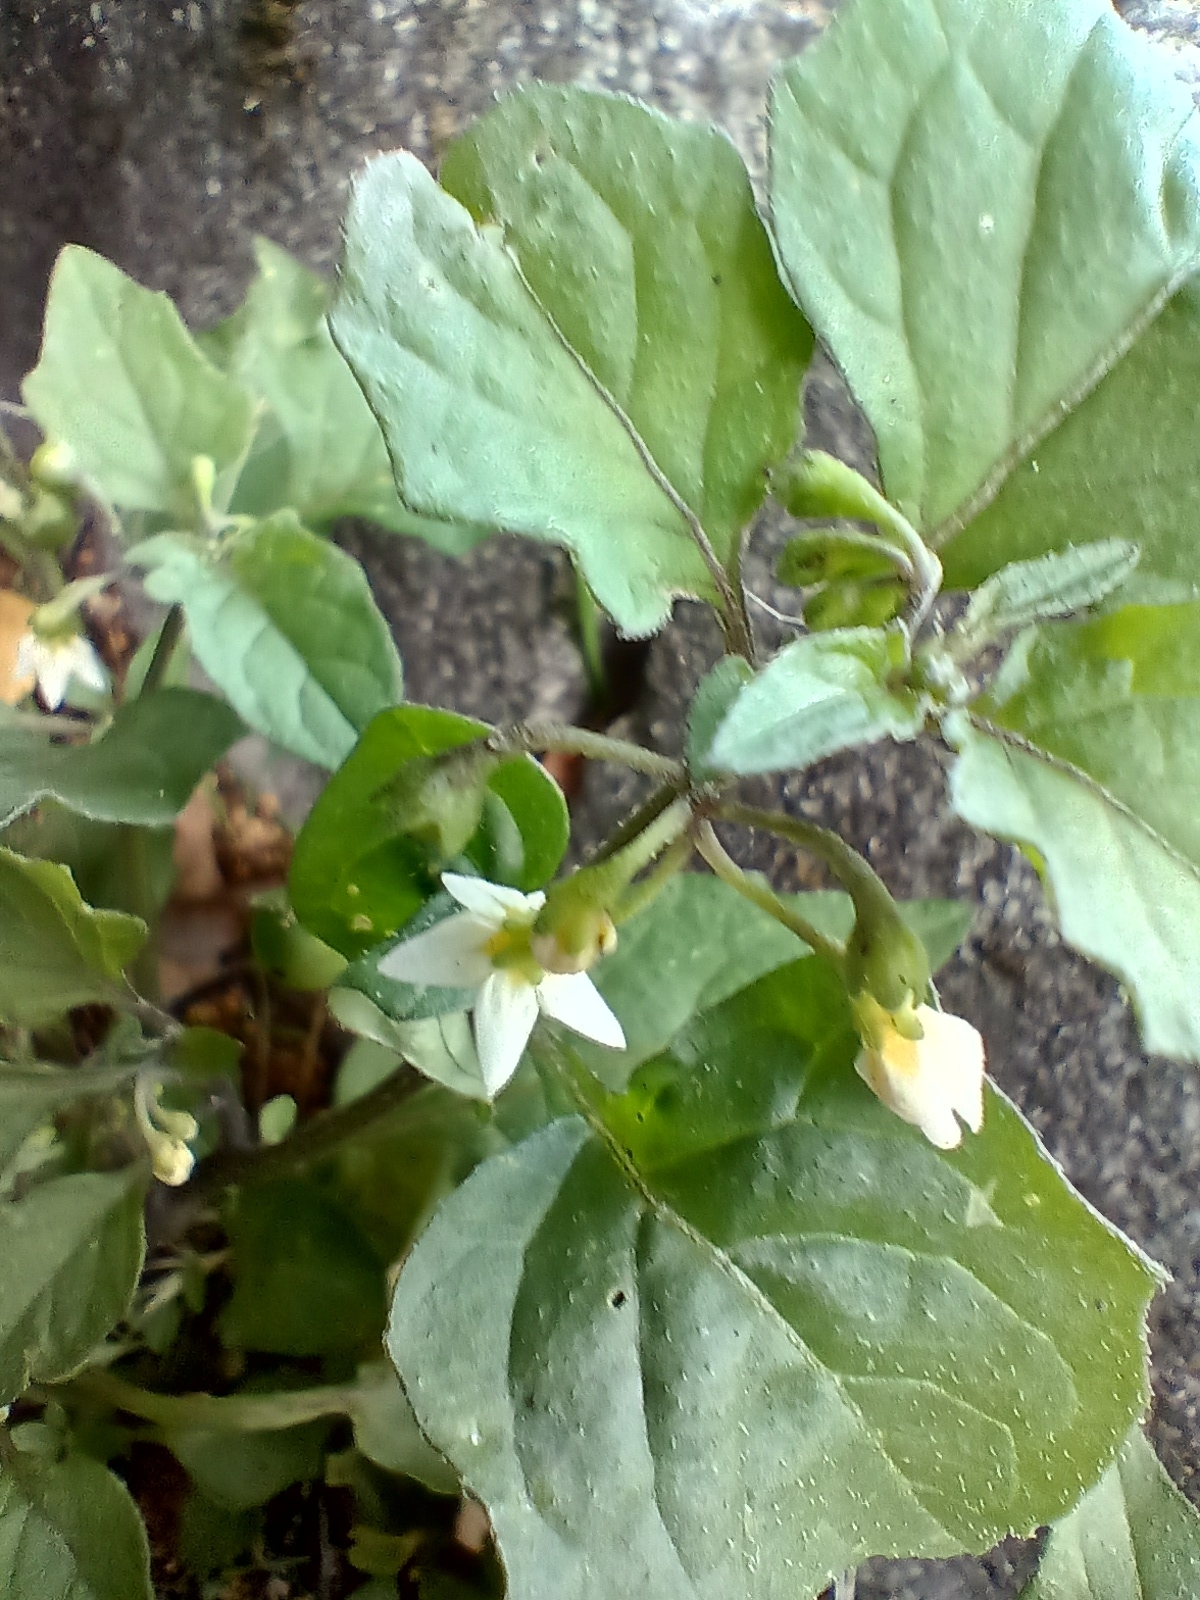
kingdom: Plantae
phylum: Tracheophyta
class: Magnoliopsida
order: Solanales
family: Solanaceae
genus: Solanum
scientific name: Solanum nigrum
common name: Black nightshade
